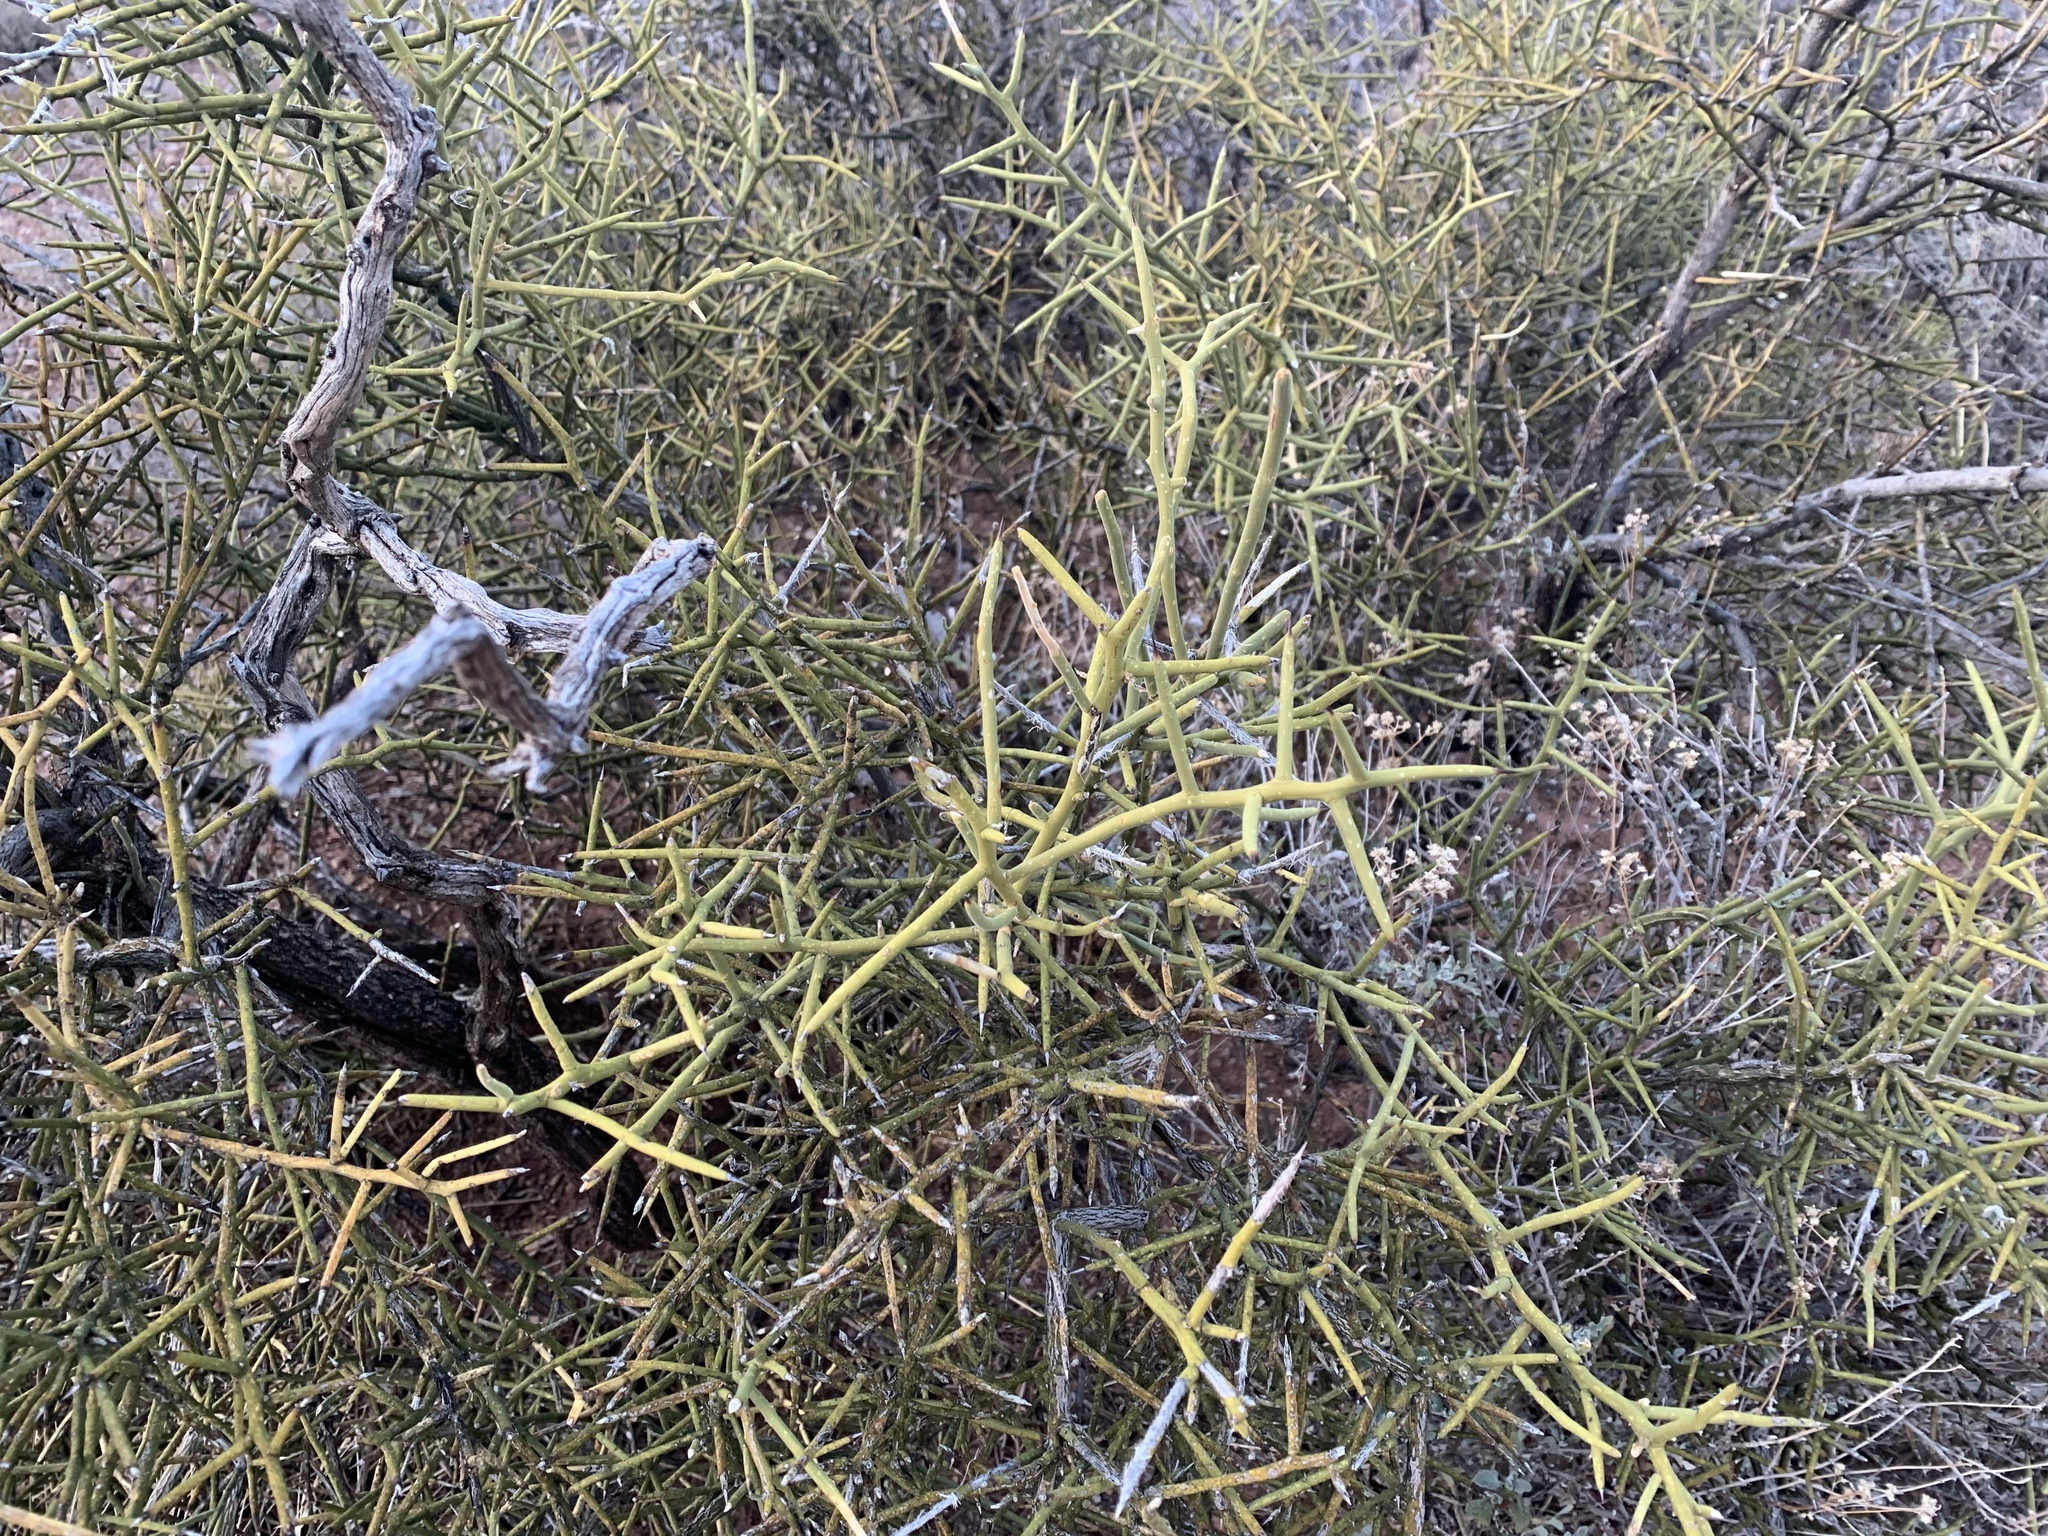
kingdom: Plantae
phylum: Tracheophyta
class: Magnoliopsida
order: Brassicales
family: Koeberliniaceae
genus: Koeberlinia
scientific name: Koeberlinia spinosa
